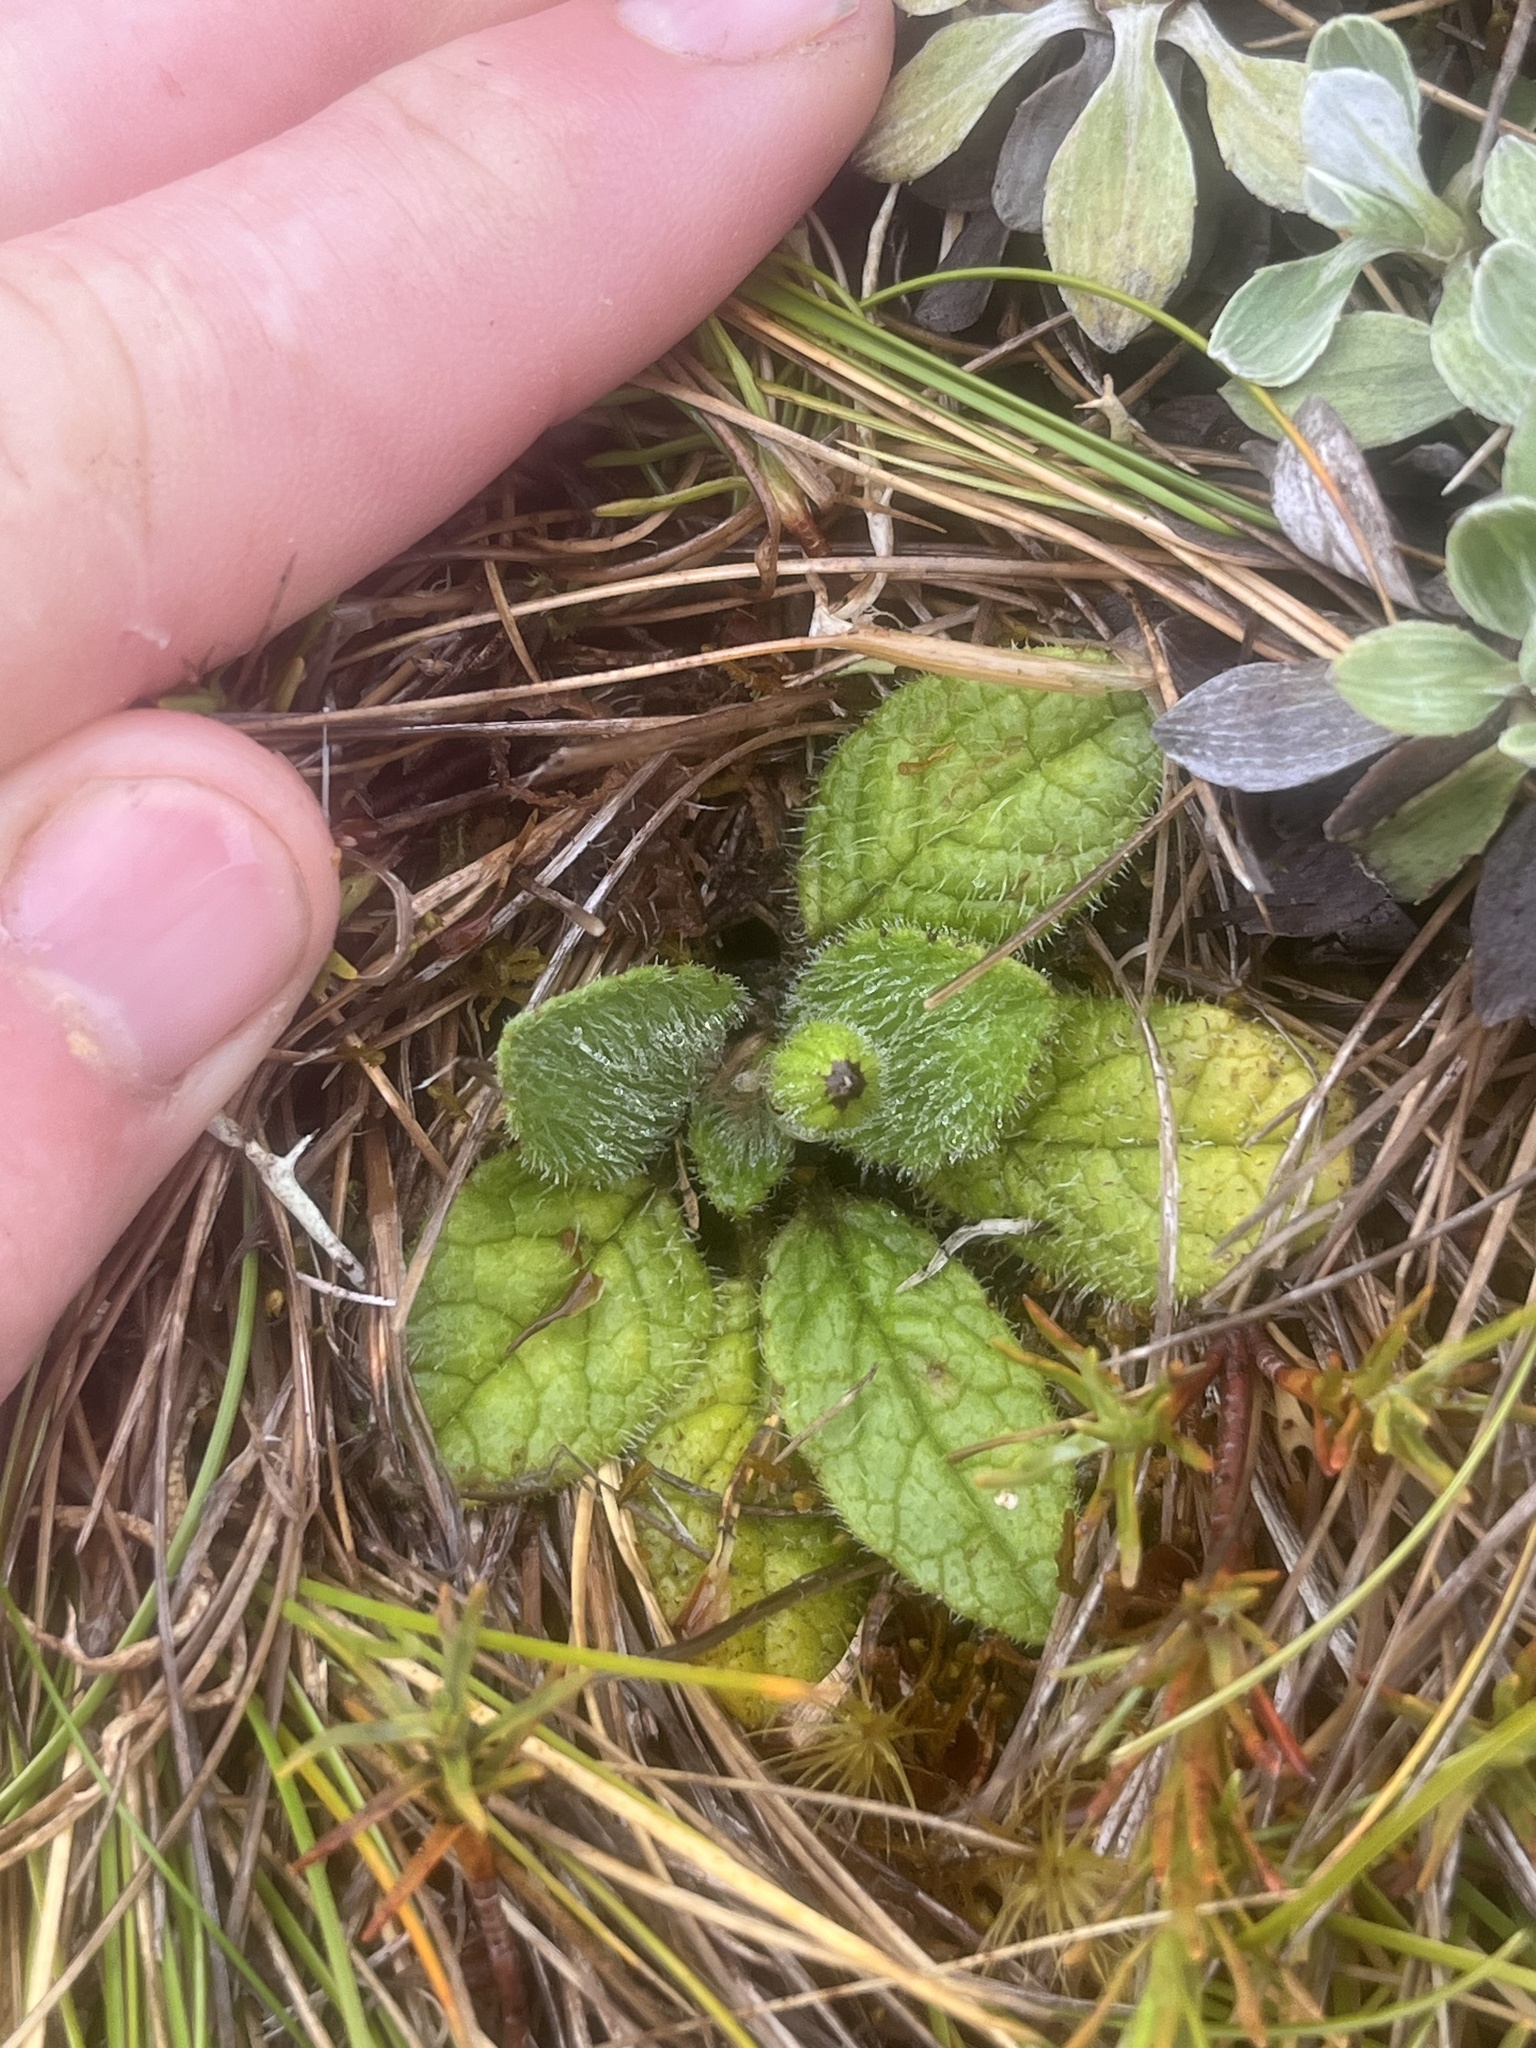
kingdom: Plantae
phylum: Tracheophyta
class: Magnoliopsida
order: Asterales
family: Asteraceae
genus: Brachyglottis
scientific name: Brachyglottis bellidioides
